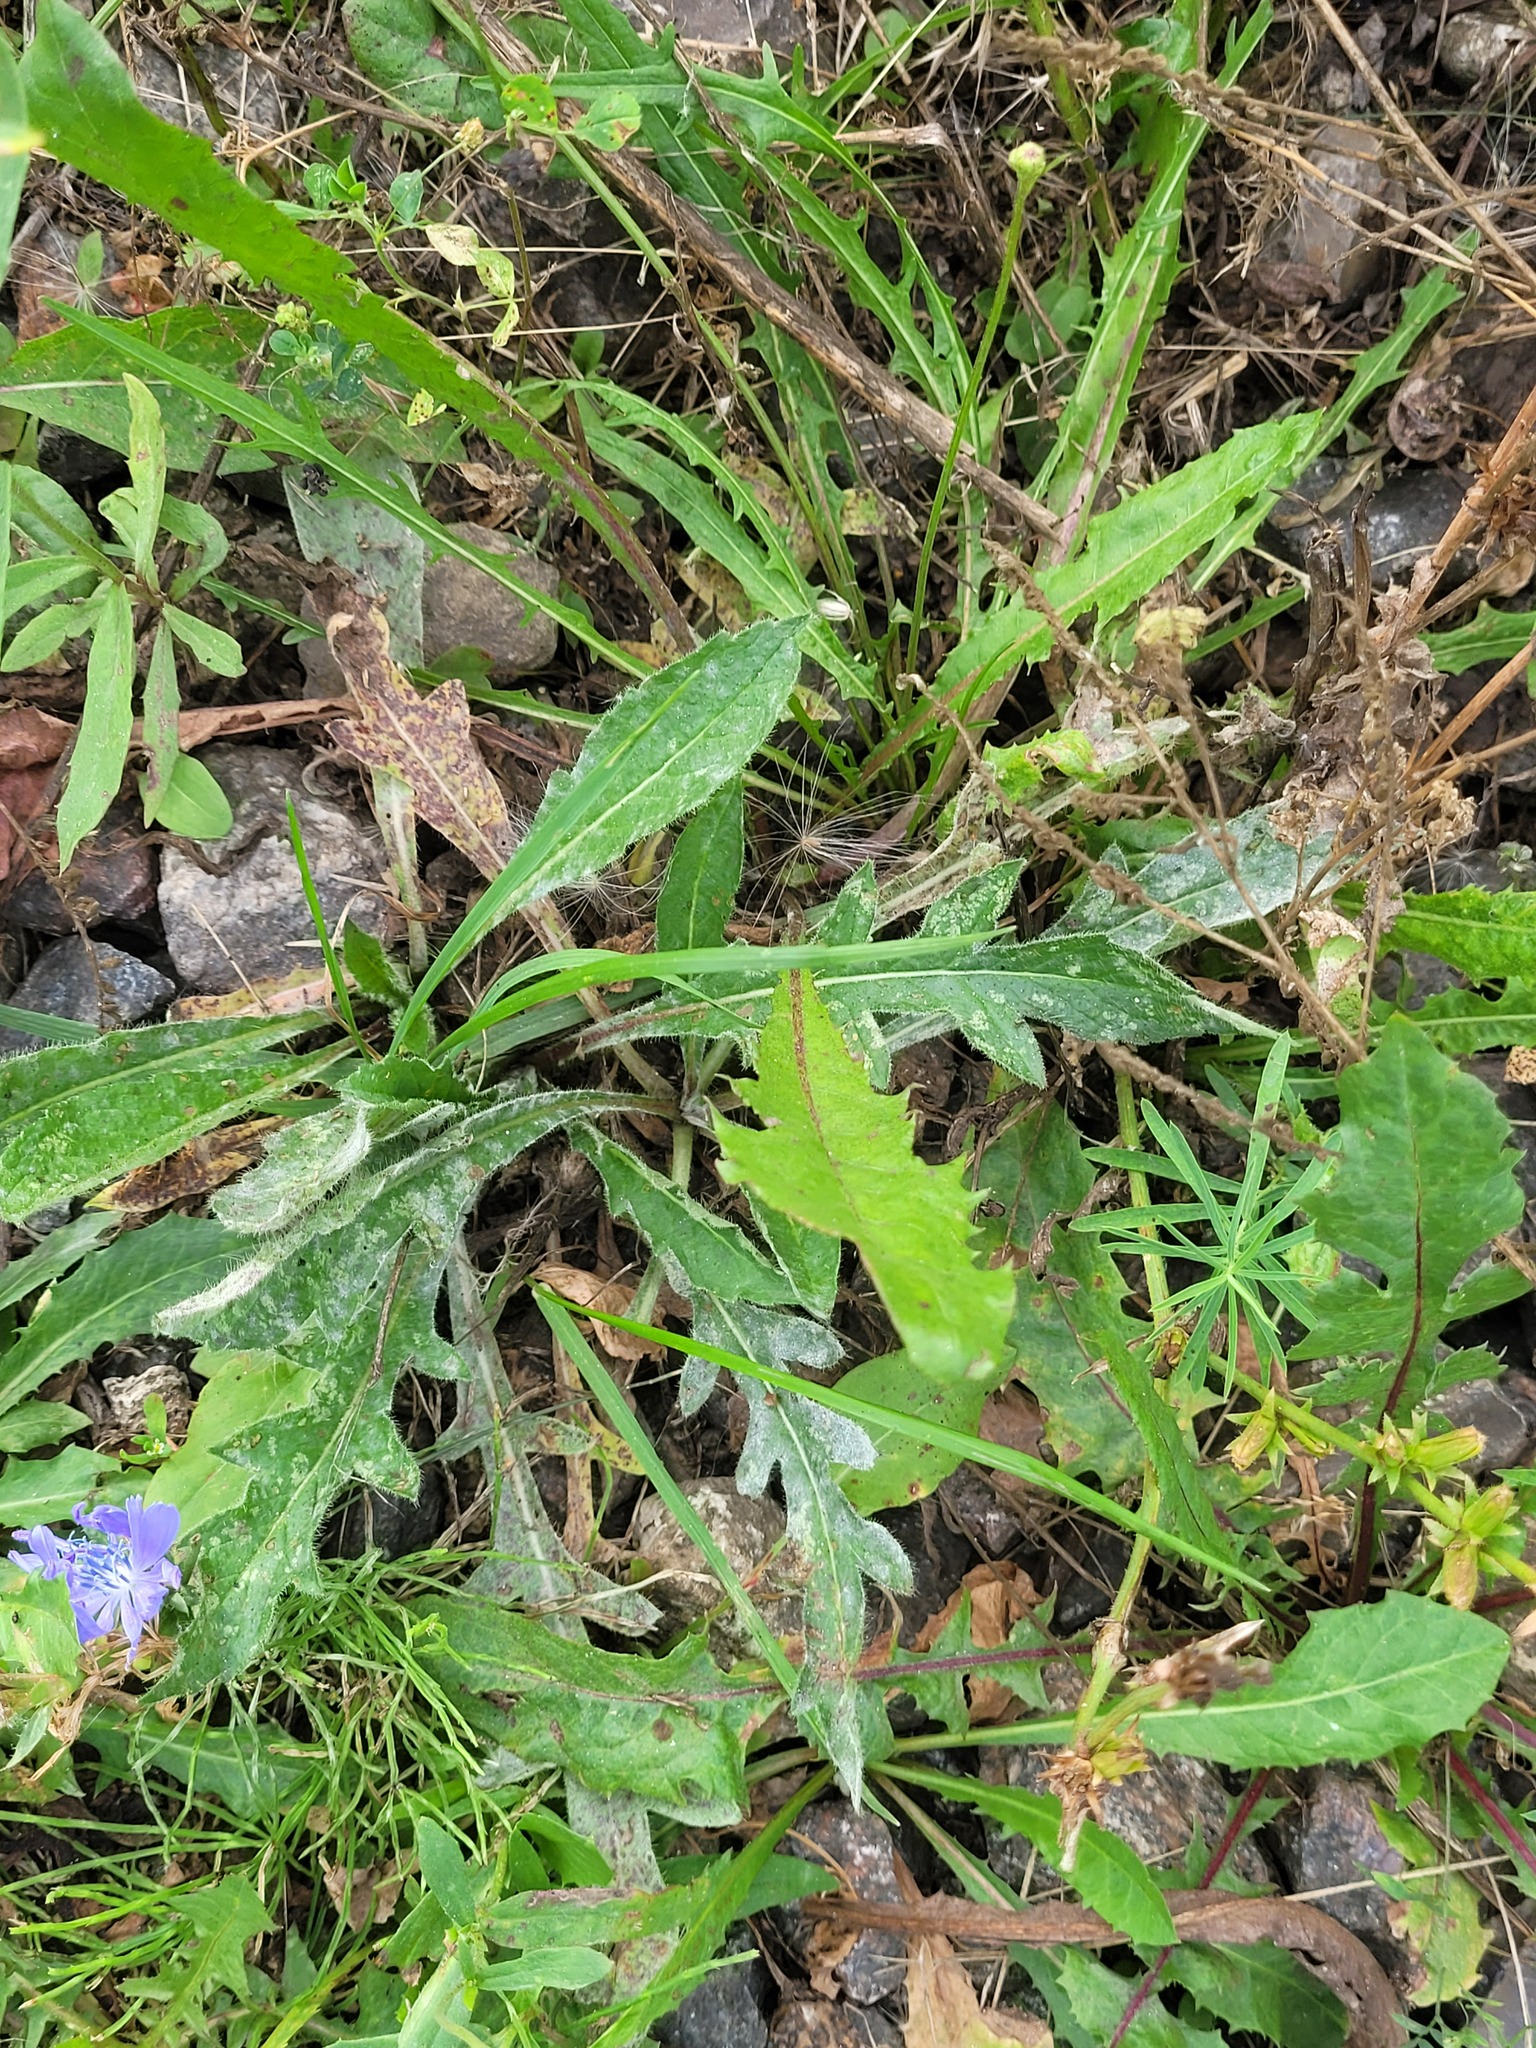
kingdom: Plantae
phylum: Tracheophyta
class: Magnoliopsida
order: Dipsacales
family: Caprifoliaceae
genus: Knautia
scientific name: Knautia arvensis
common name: Field scabiosa
